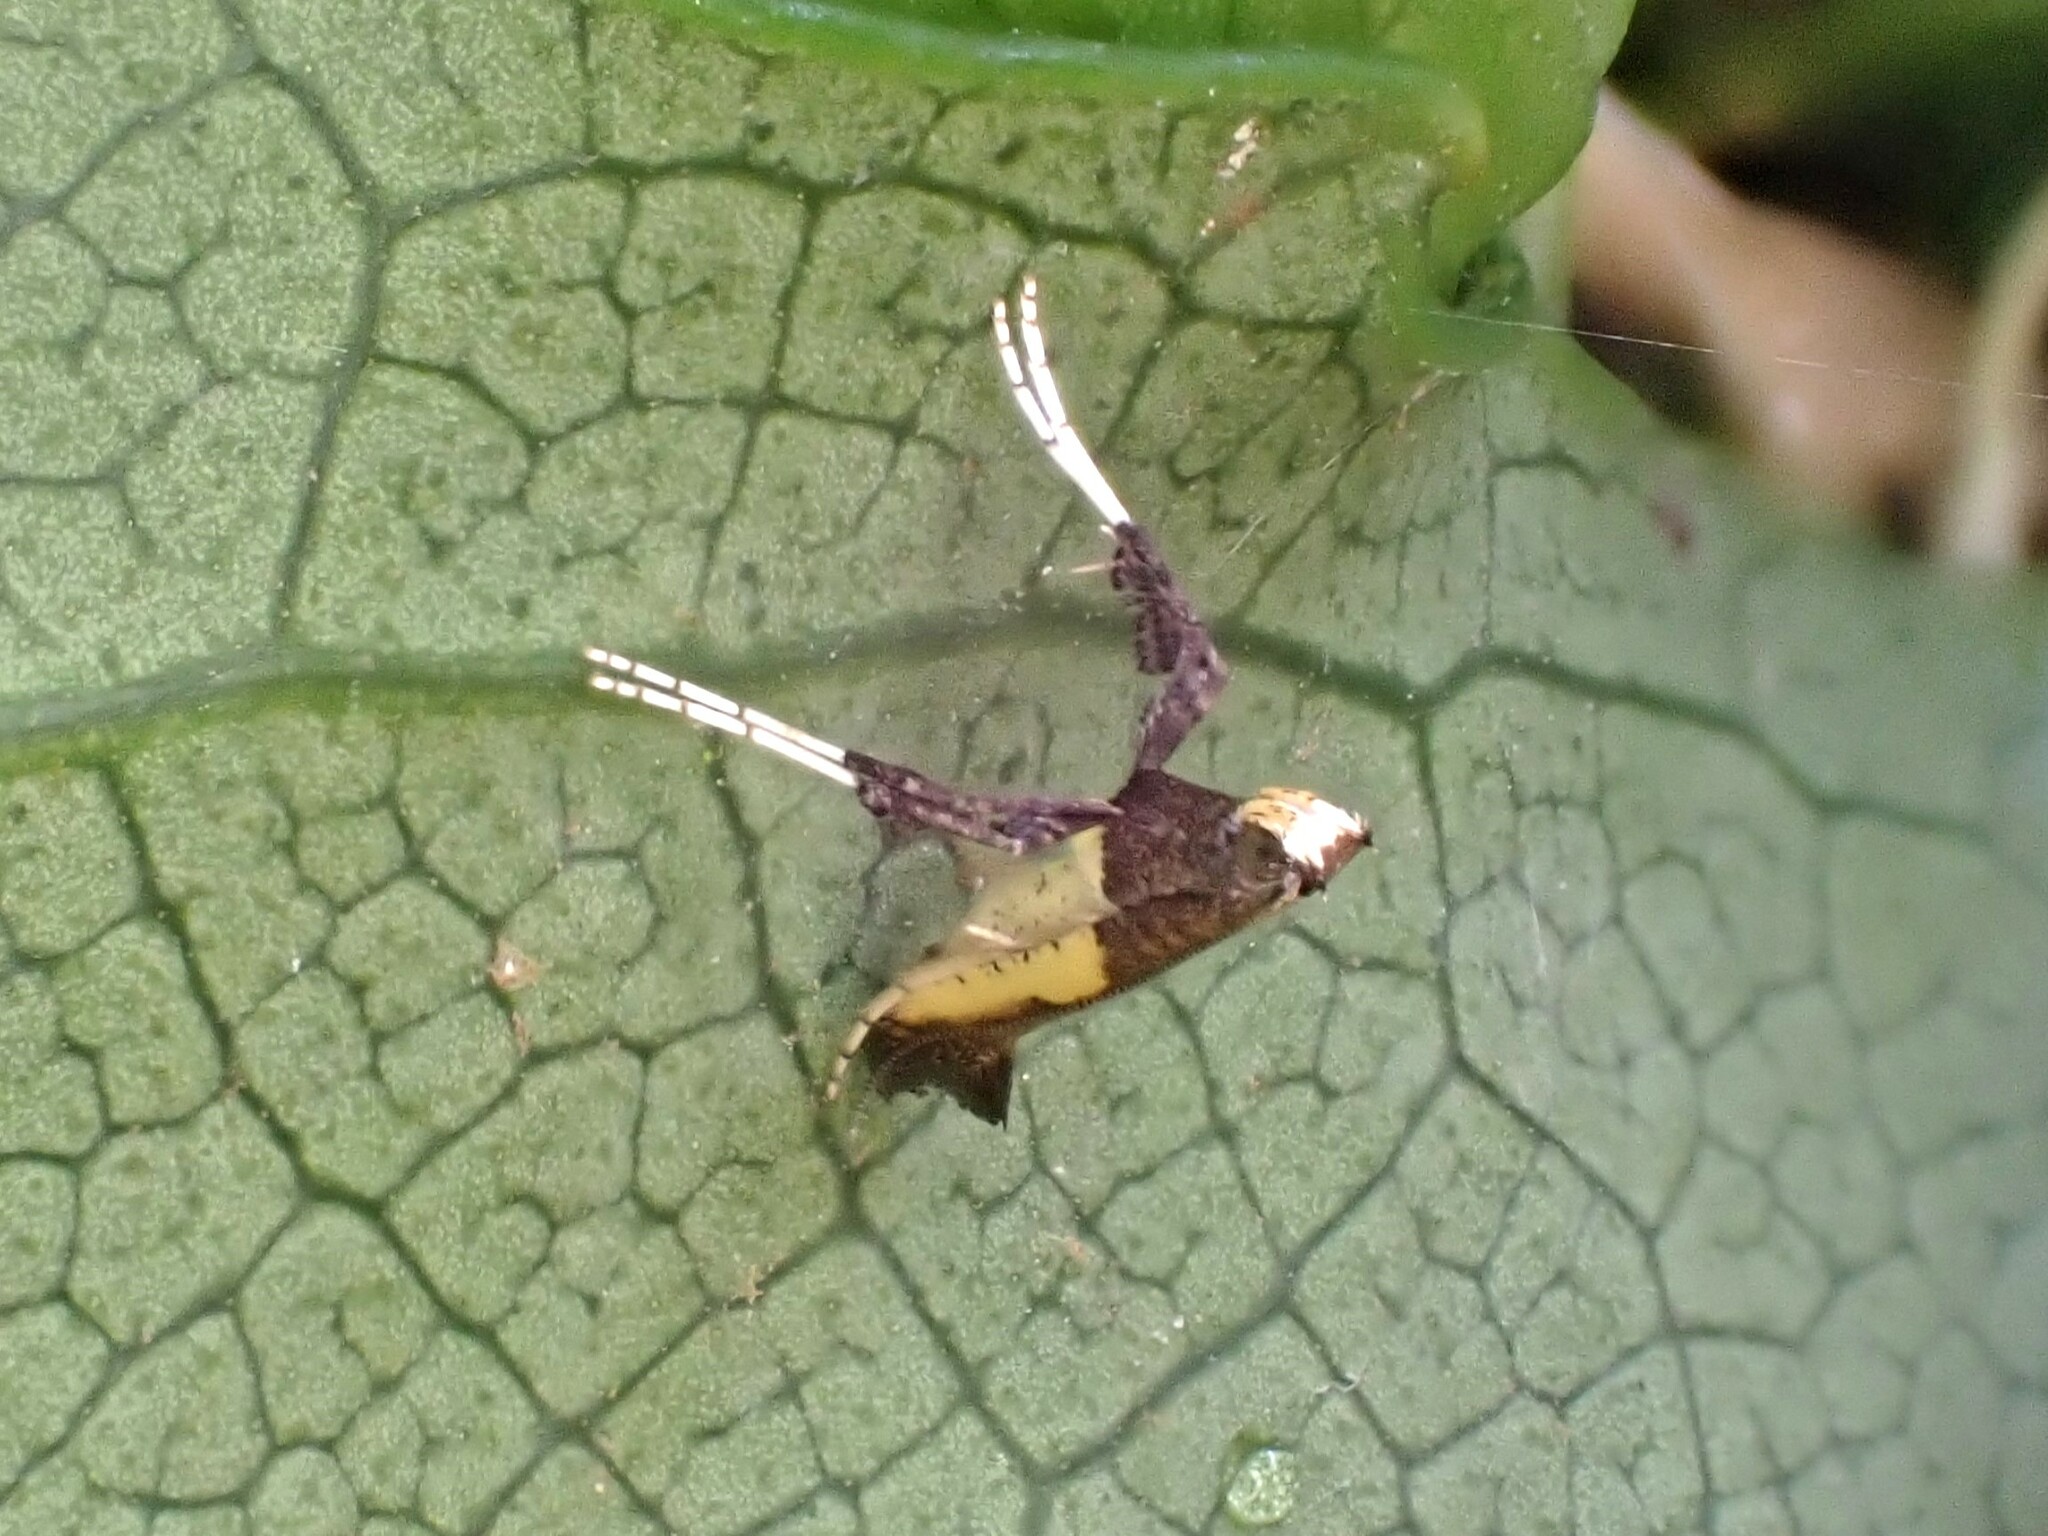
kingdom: Animalia
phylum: Arthropoda
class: Insecta
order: Lepidoptera
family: Gracillariidae
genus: Caloptilia
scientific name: Caloptilia azaleella
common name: Azalea leafminer
